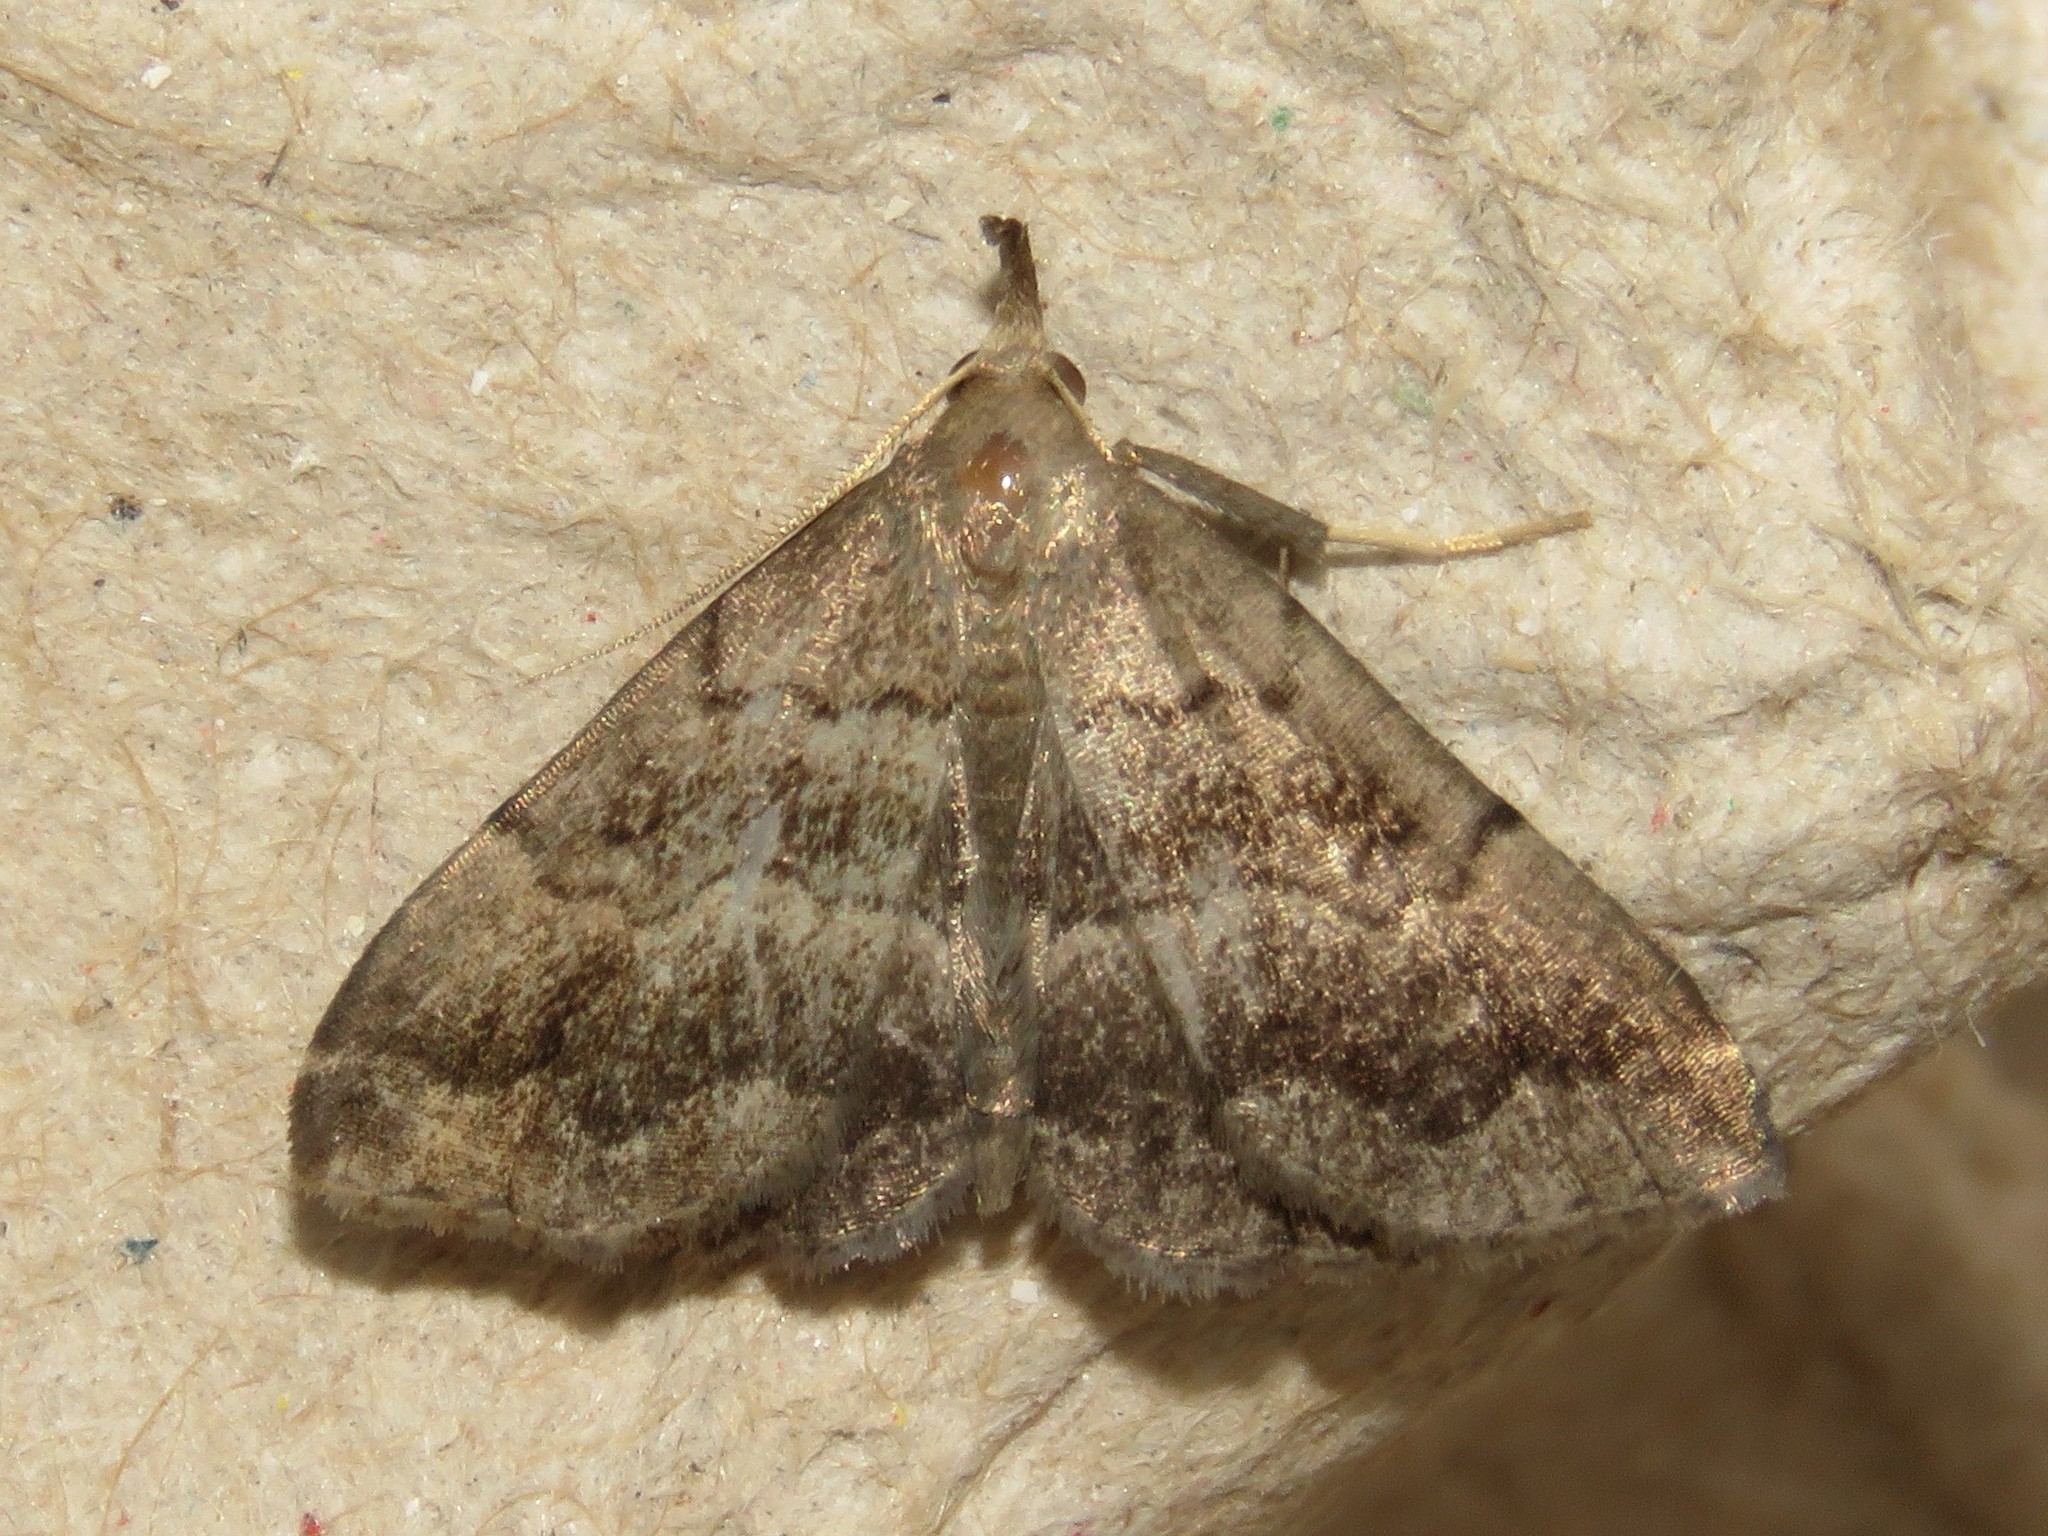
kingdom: Animalia
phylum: Arthropoda
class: Insecta
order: Lepidoptera
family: Erebidae
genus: Phalaenostola
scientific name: Phalaenostola larentioides
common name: Black-banded owlet
